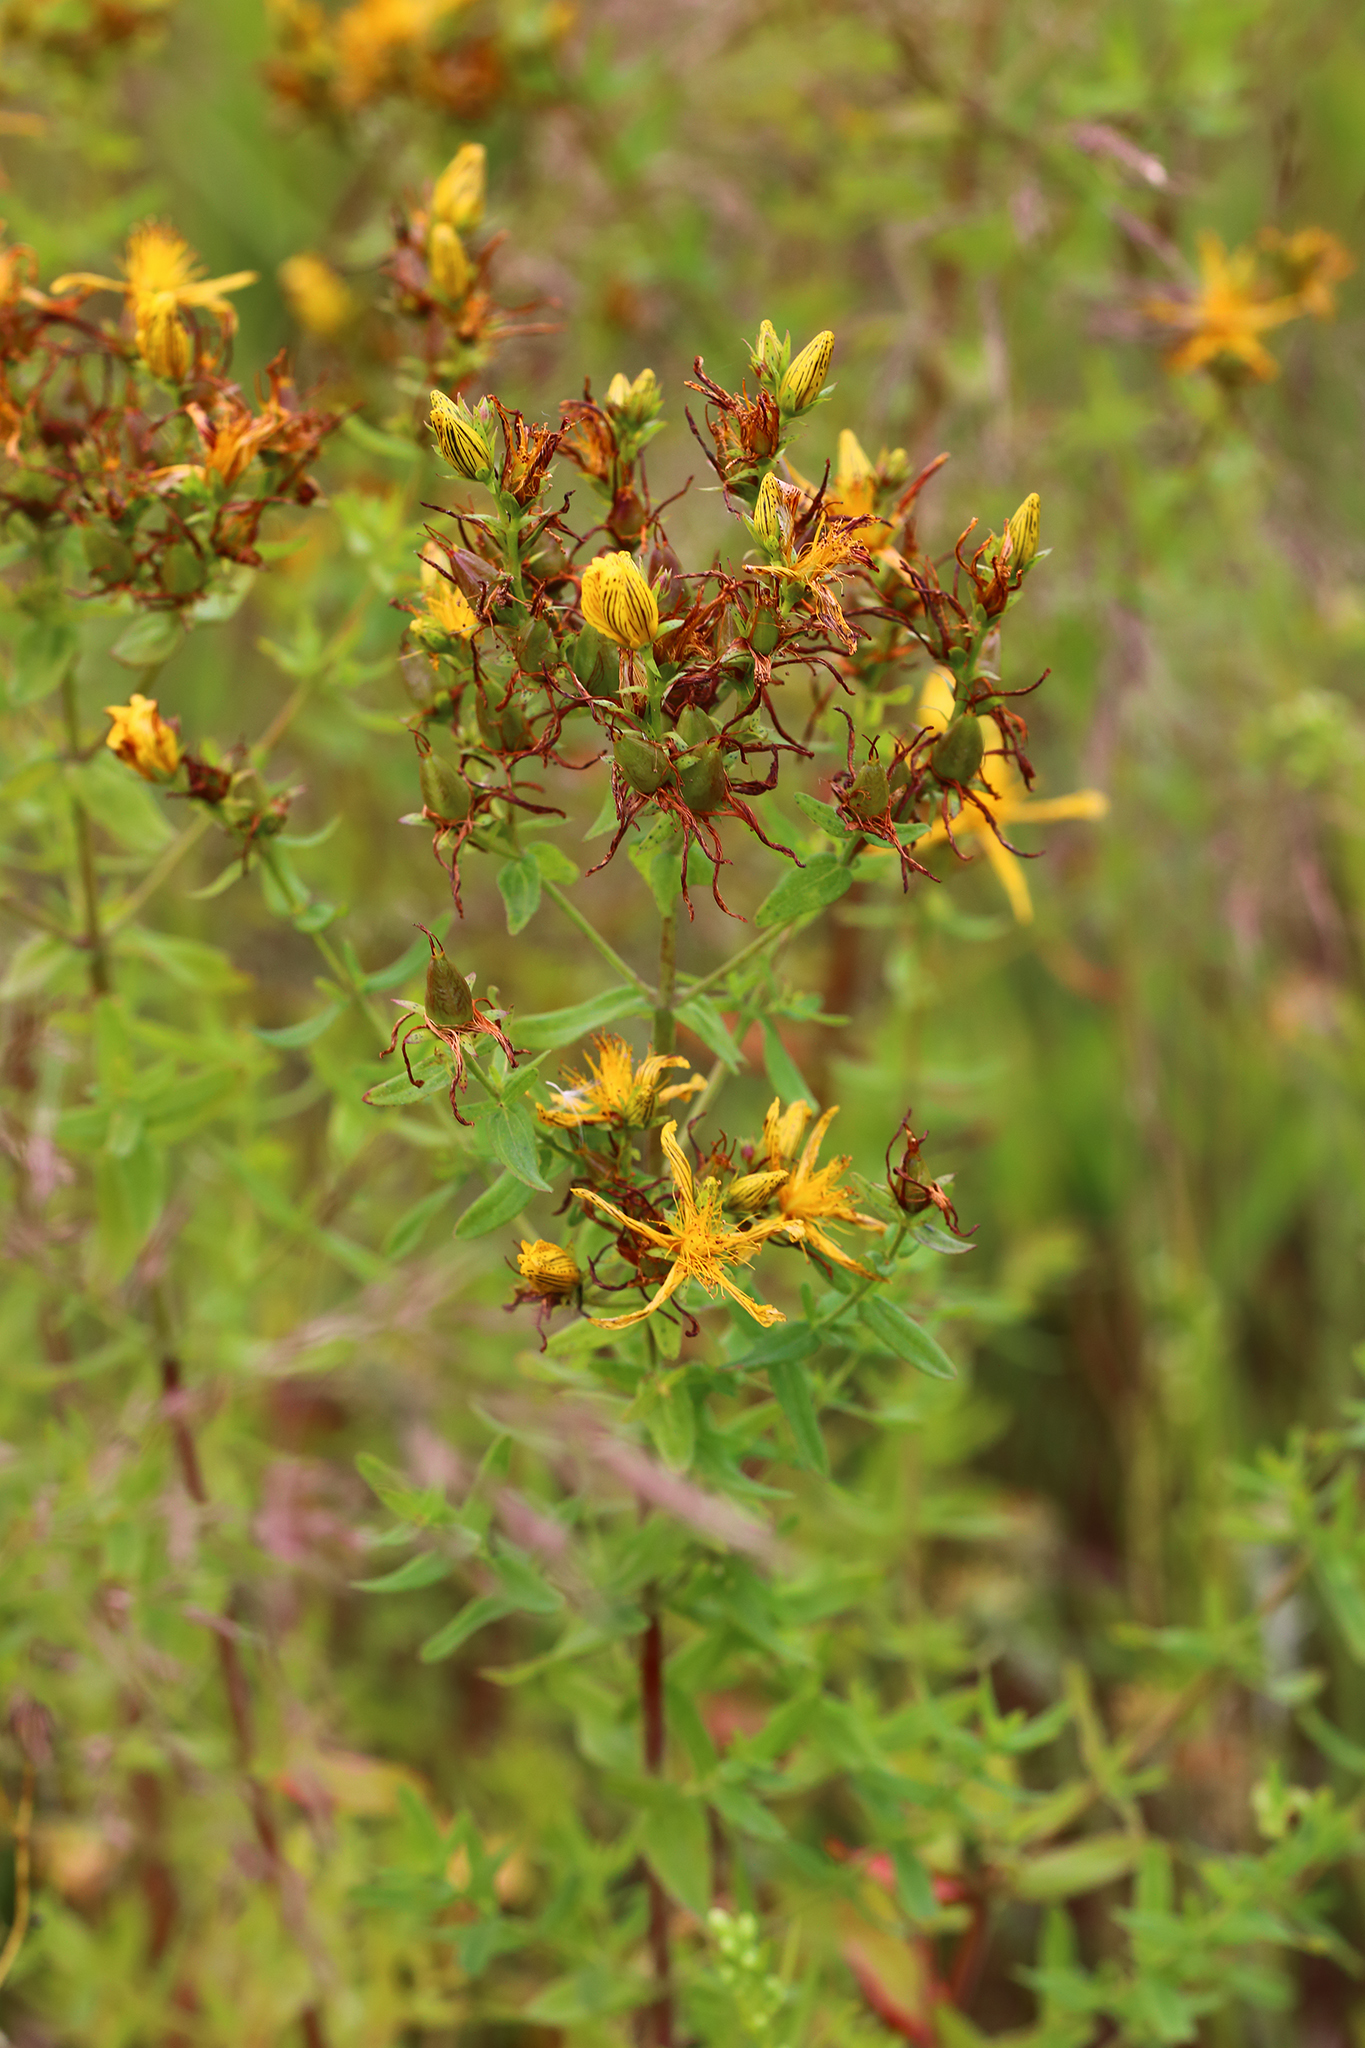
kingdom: Plantae
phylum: Tracheophyta
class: Magnoliopsida
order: Malpighiales
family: Hypericaceae
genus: Hypericum
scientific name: Hypericum perforatum
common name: Common st. johnswort
